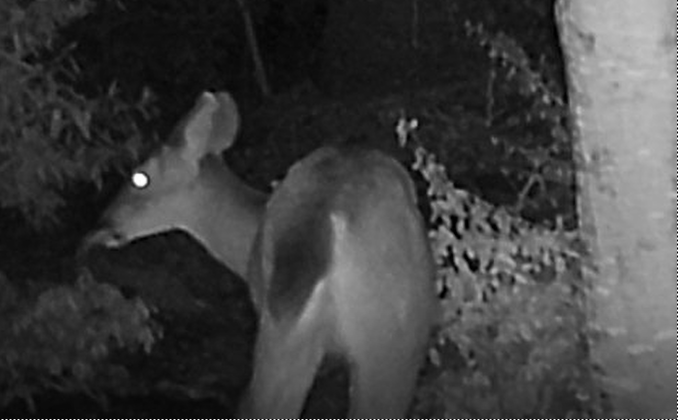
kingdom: Animalia
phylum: Chordata
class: Mammalia
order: Artiodactyla
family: Cervidae
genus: Odocoileus
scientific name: Odocoileus hemionus
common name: Mule deer
